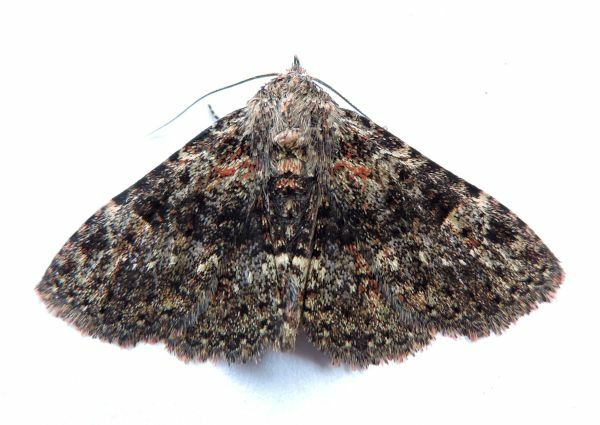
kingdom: Animalia
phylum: Arthropoda
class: Insecta
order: Lepidoptera
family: Erebidae
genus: Metalectra
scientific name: Metalectra discalis
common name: Common fungus moth
